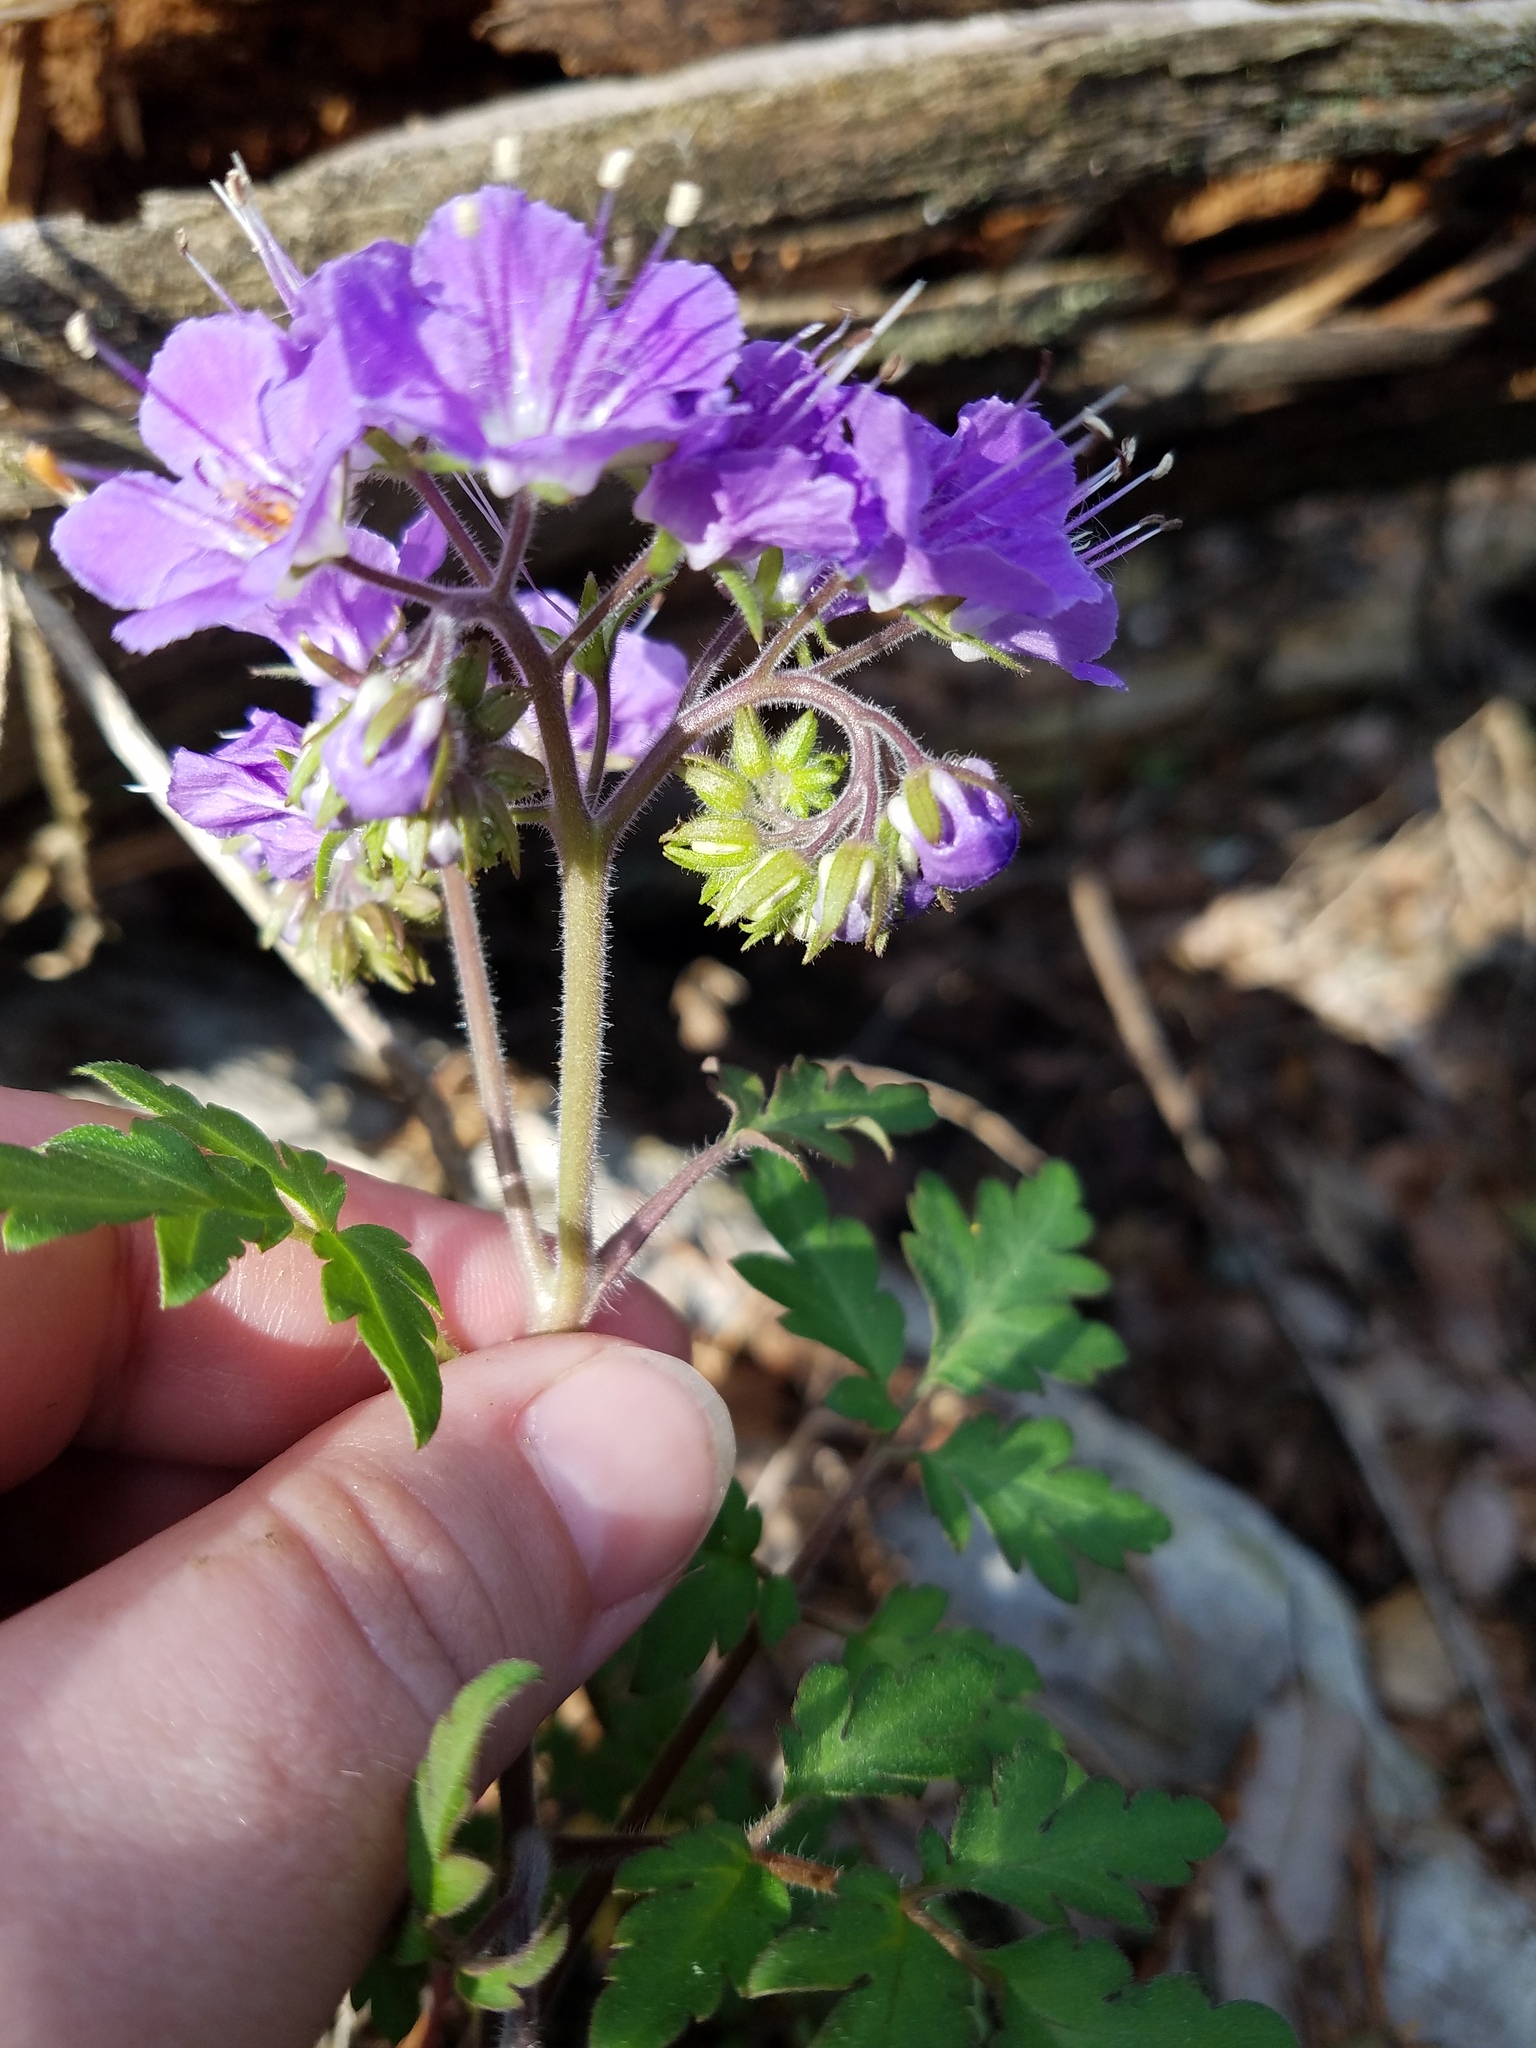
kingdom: Plantae
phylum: Tracheophyta
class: Magnoliopsida
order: Boraginales
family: Hydrophyllaceae
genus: Phacelia
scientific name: Phacelia bipinnatifida
